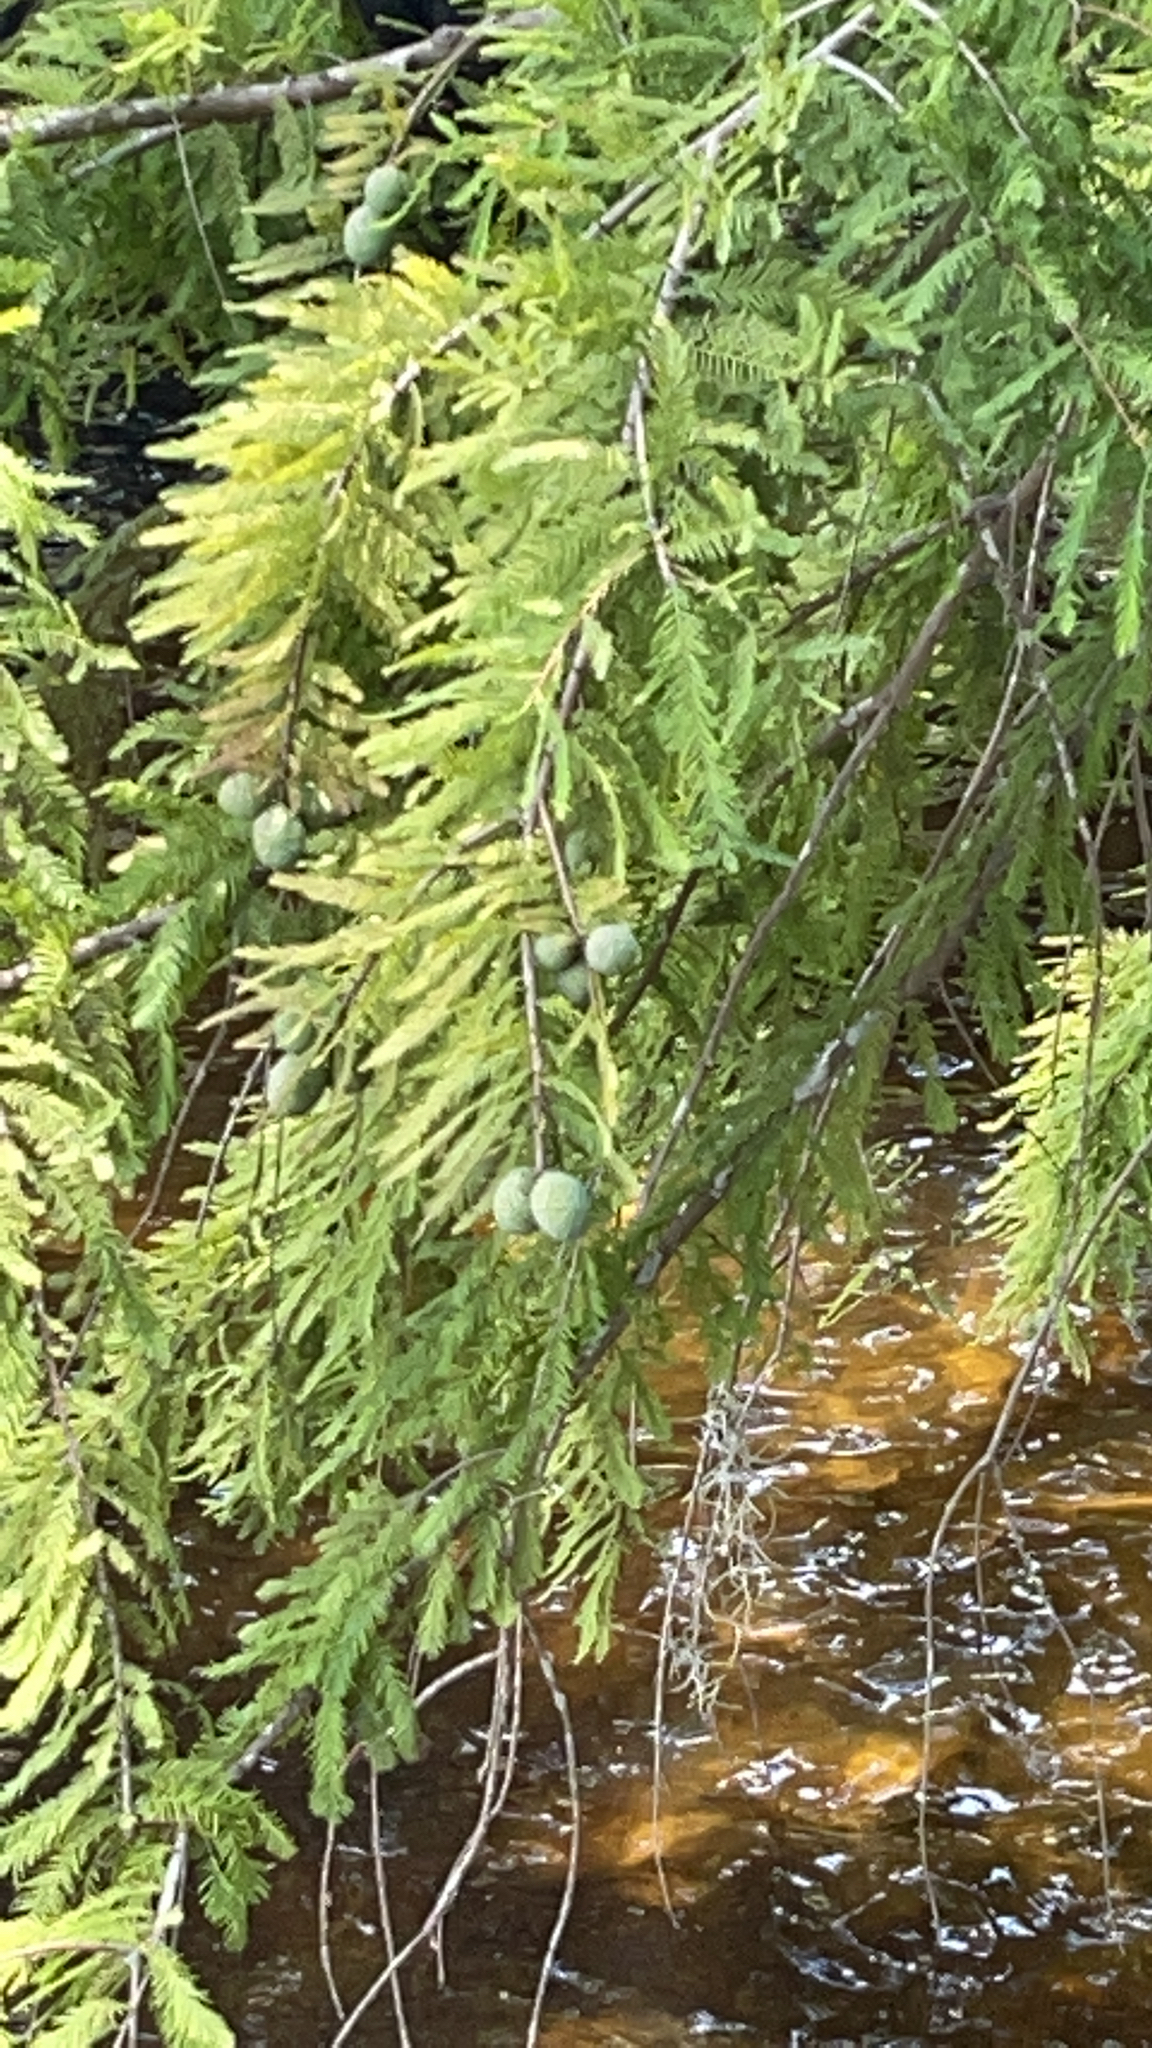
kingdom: Plantae
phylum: Tracheophyta
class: Pinopsida
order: Pinales
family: Cupressaceae
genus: Taxodium
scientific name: Taxodium distichum
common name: Bald cypress
